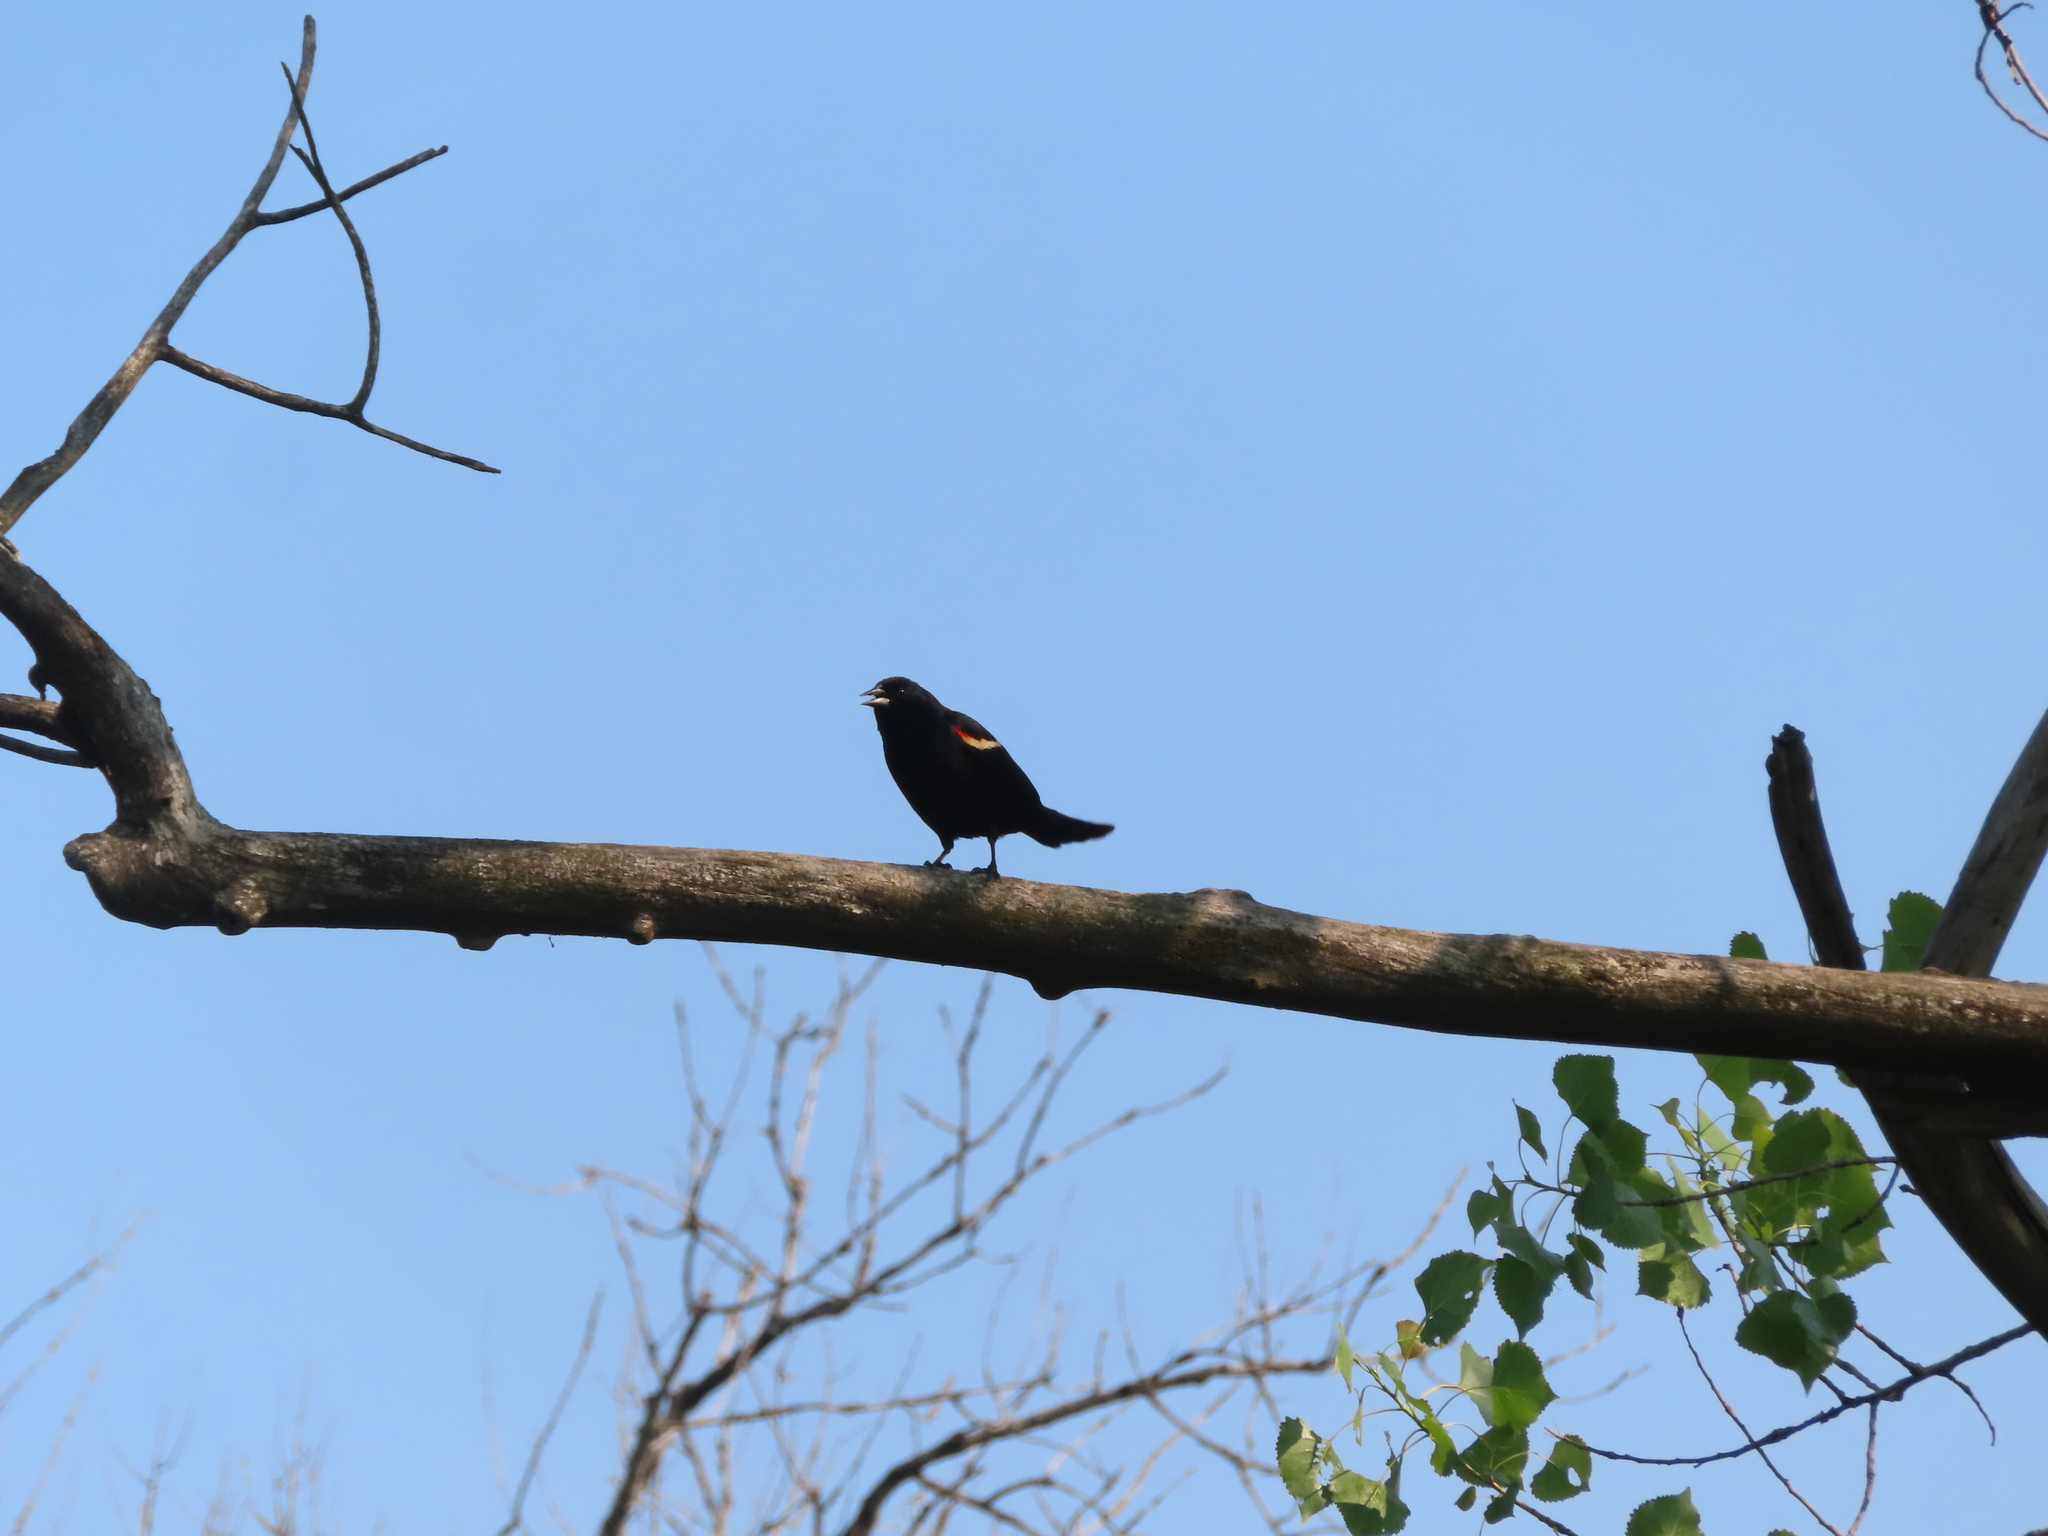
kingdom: Animalia
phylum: Chordata
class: Aves
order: Passeriformes
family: Icteridae
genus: Agelaius
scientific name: Agelaius phoeniceus
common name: Red-winged blackbird
